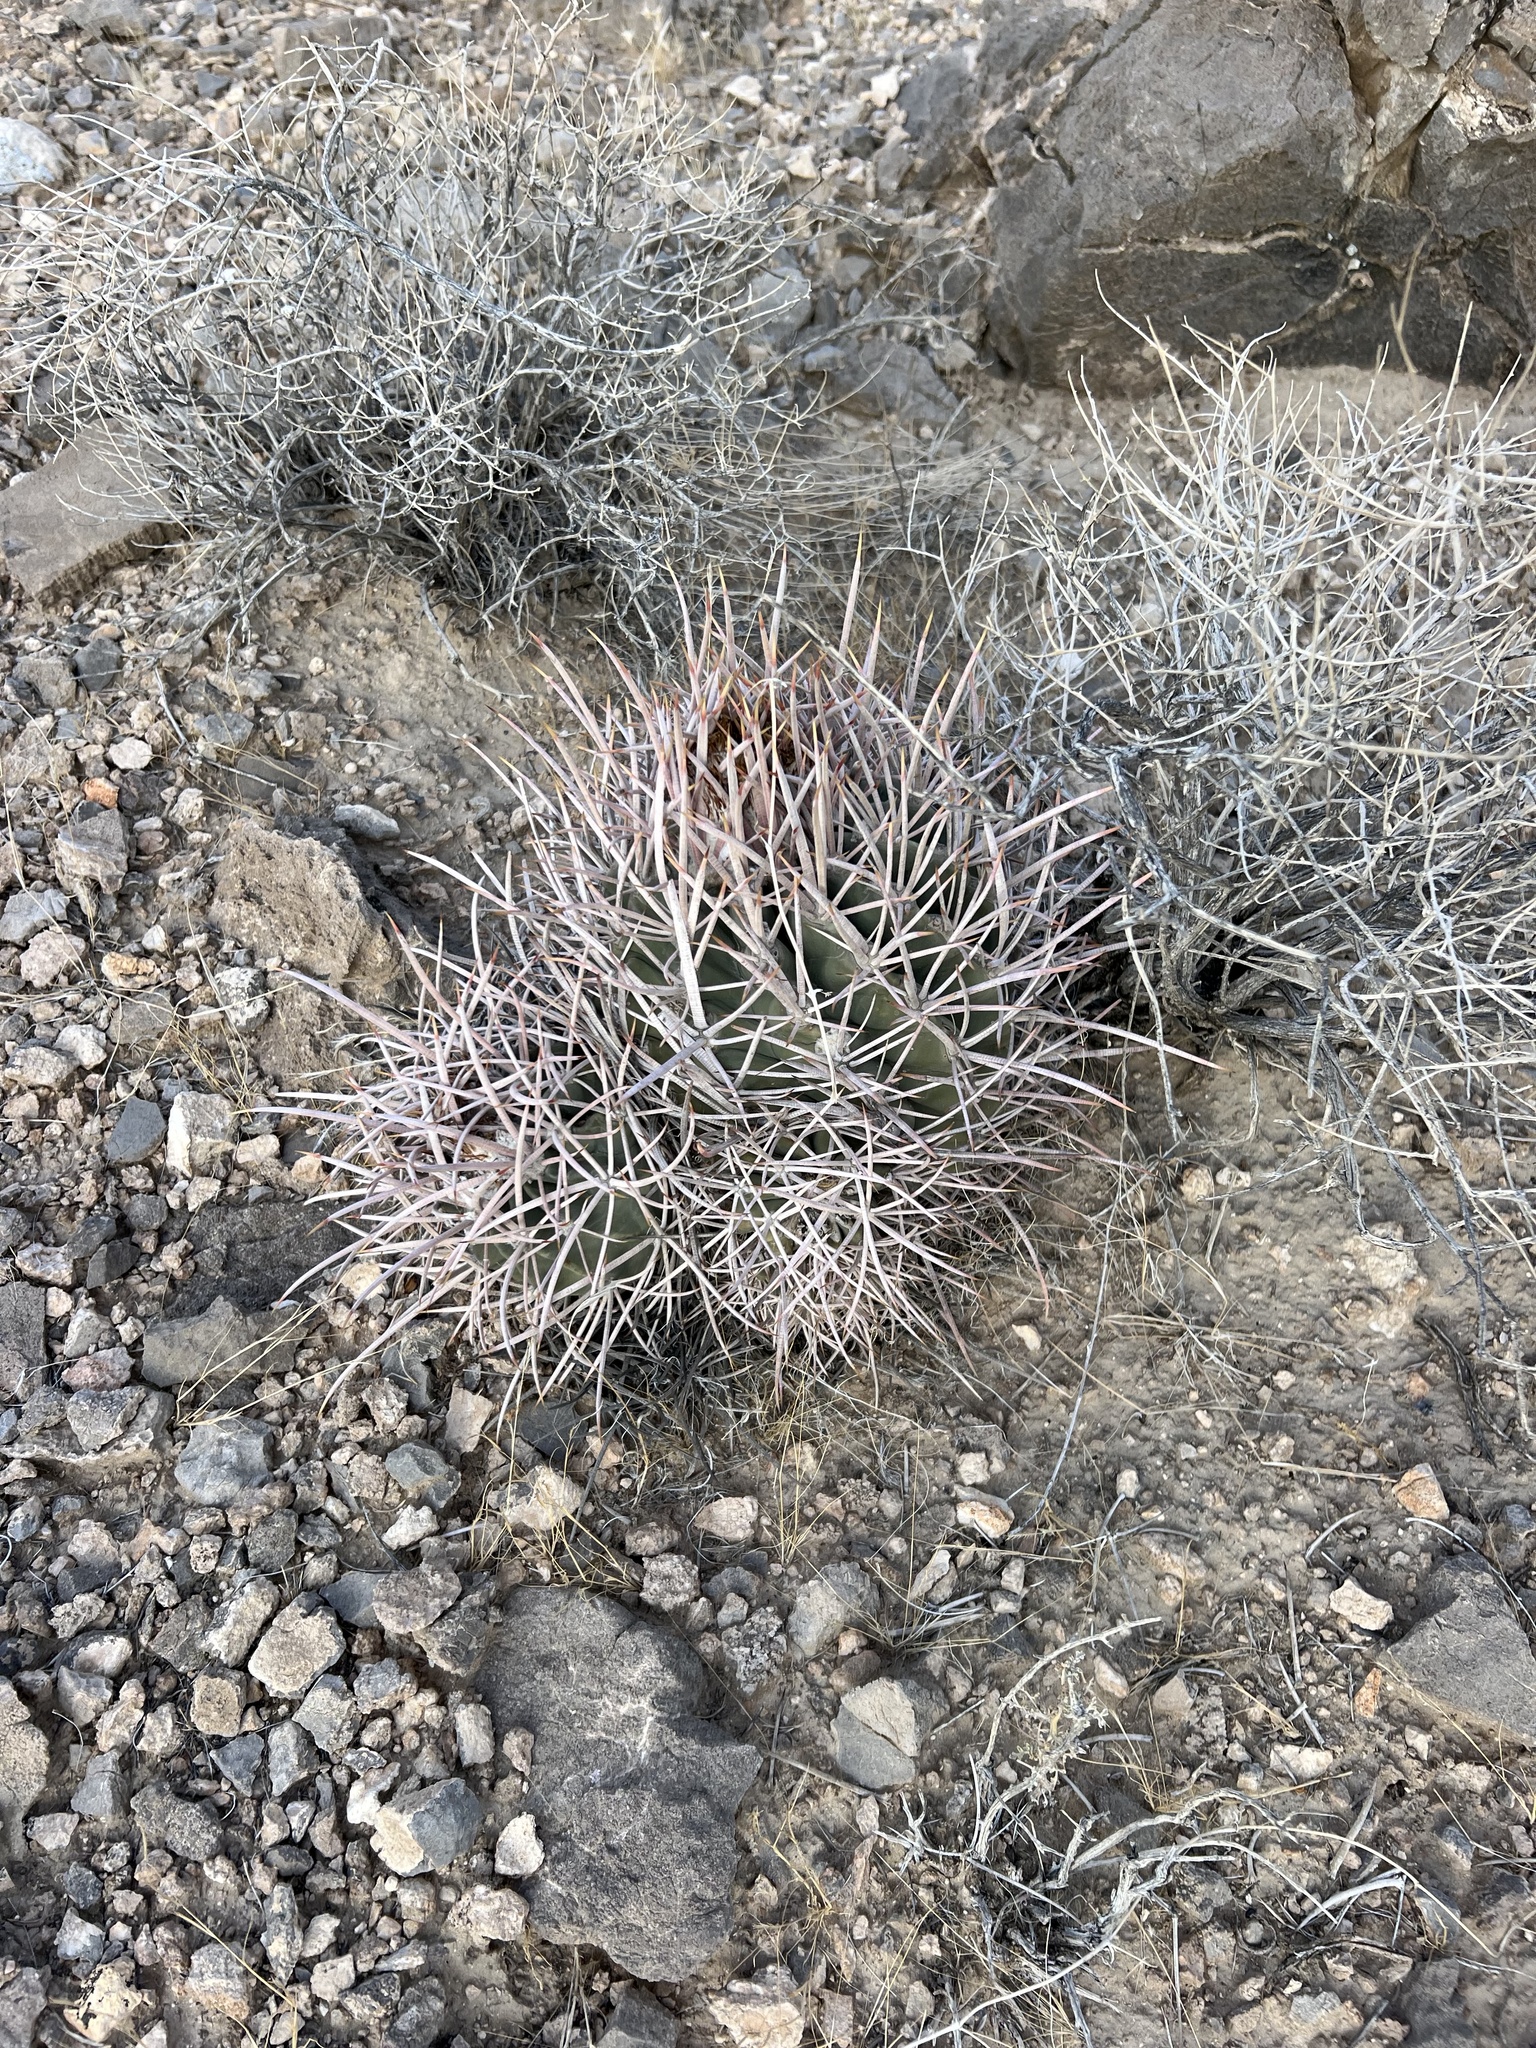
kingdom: Plantae
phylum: Tracheophyta
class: Magnoliopsida
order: Caryophyllales
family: Cactaceae
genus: Echinocactus
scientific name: Echinocactus polycephalus
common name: Cottontop cactus
